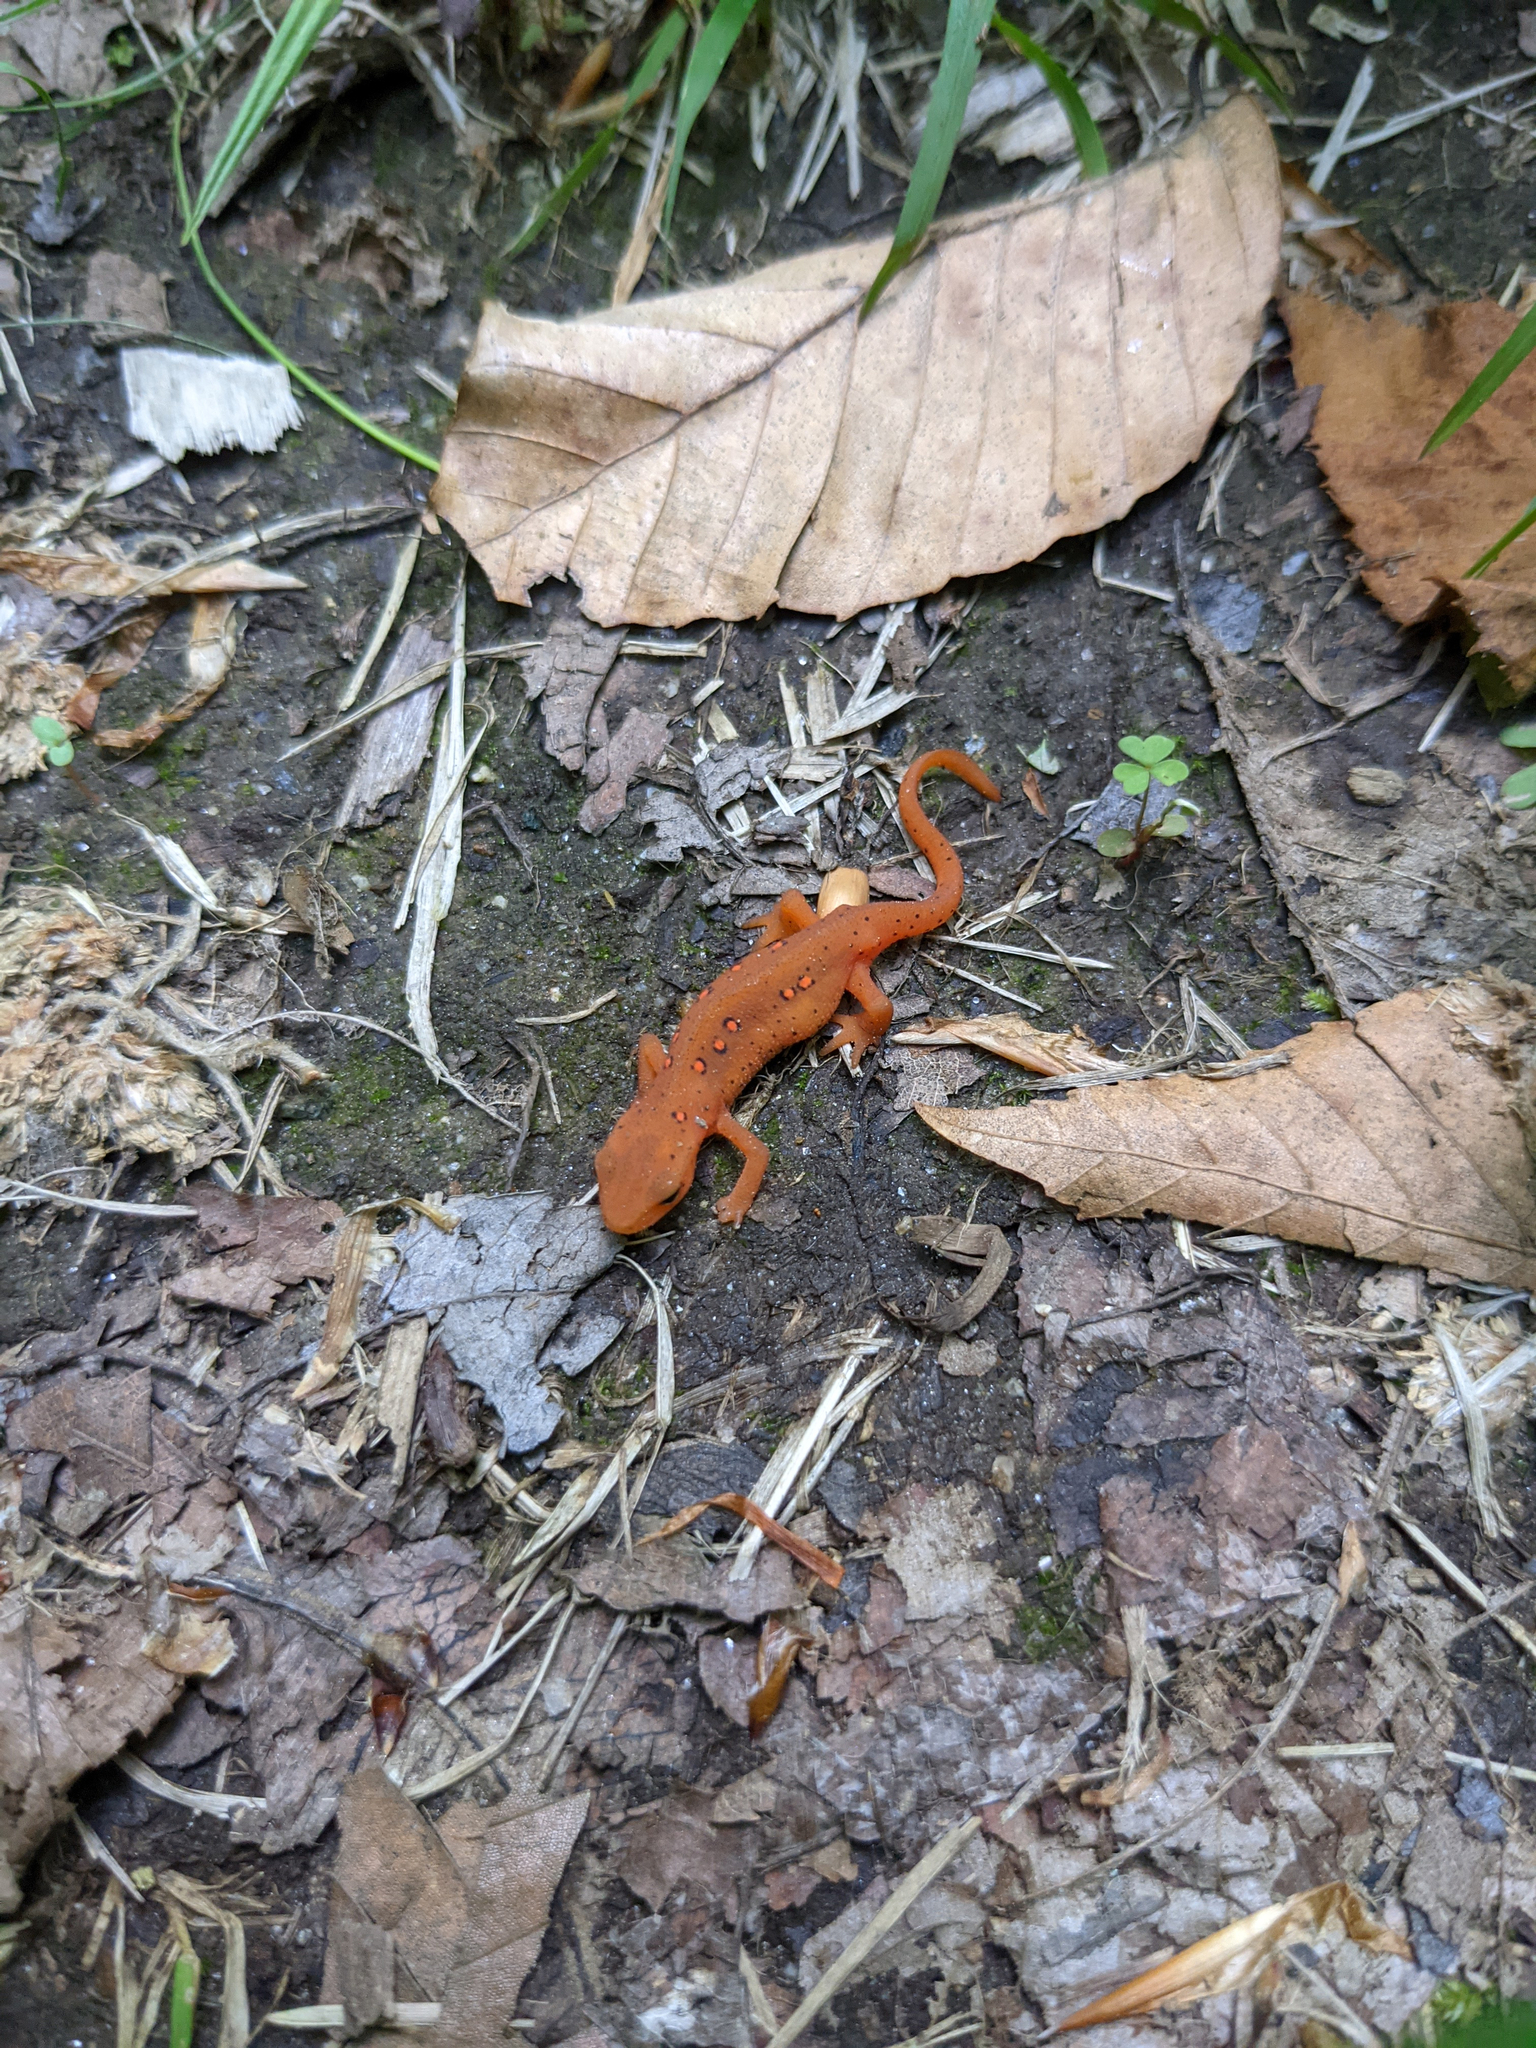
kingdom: Animalia
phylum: Chordata
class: Amphibia
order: Caudata
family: Salamandridae
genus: Notophthalmus
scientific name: Notophthalmus viridescens
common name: Eastern newt
